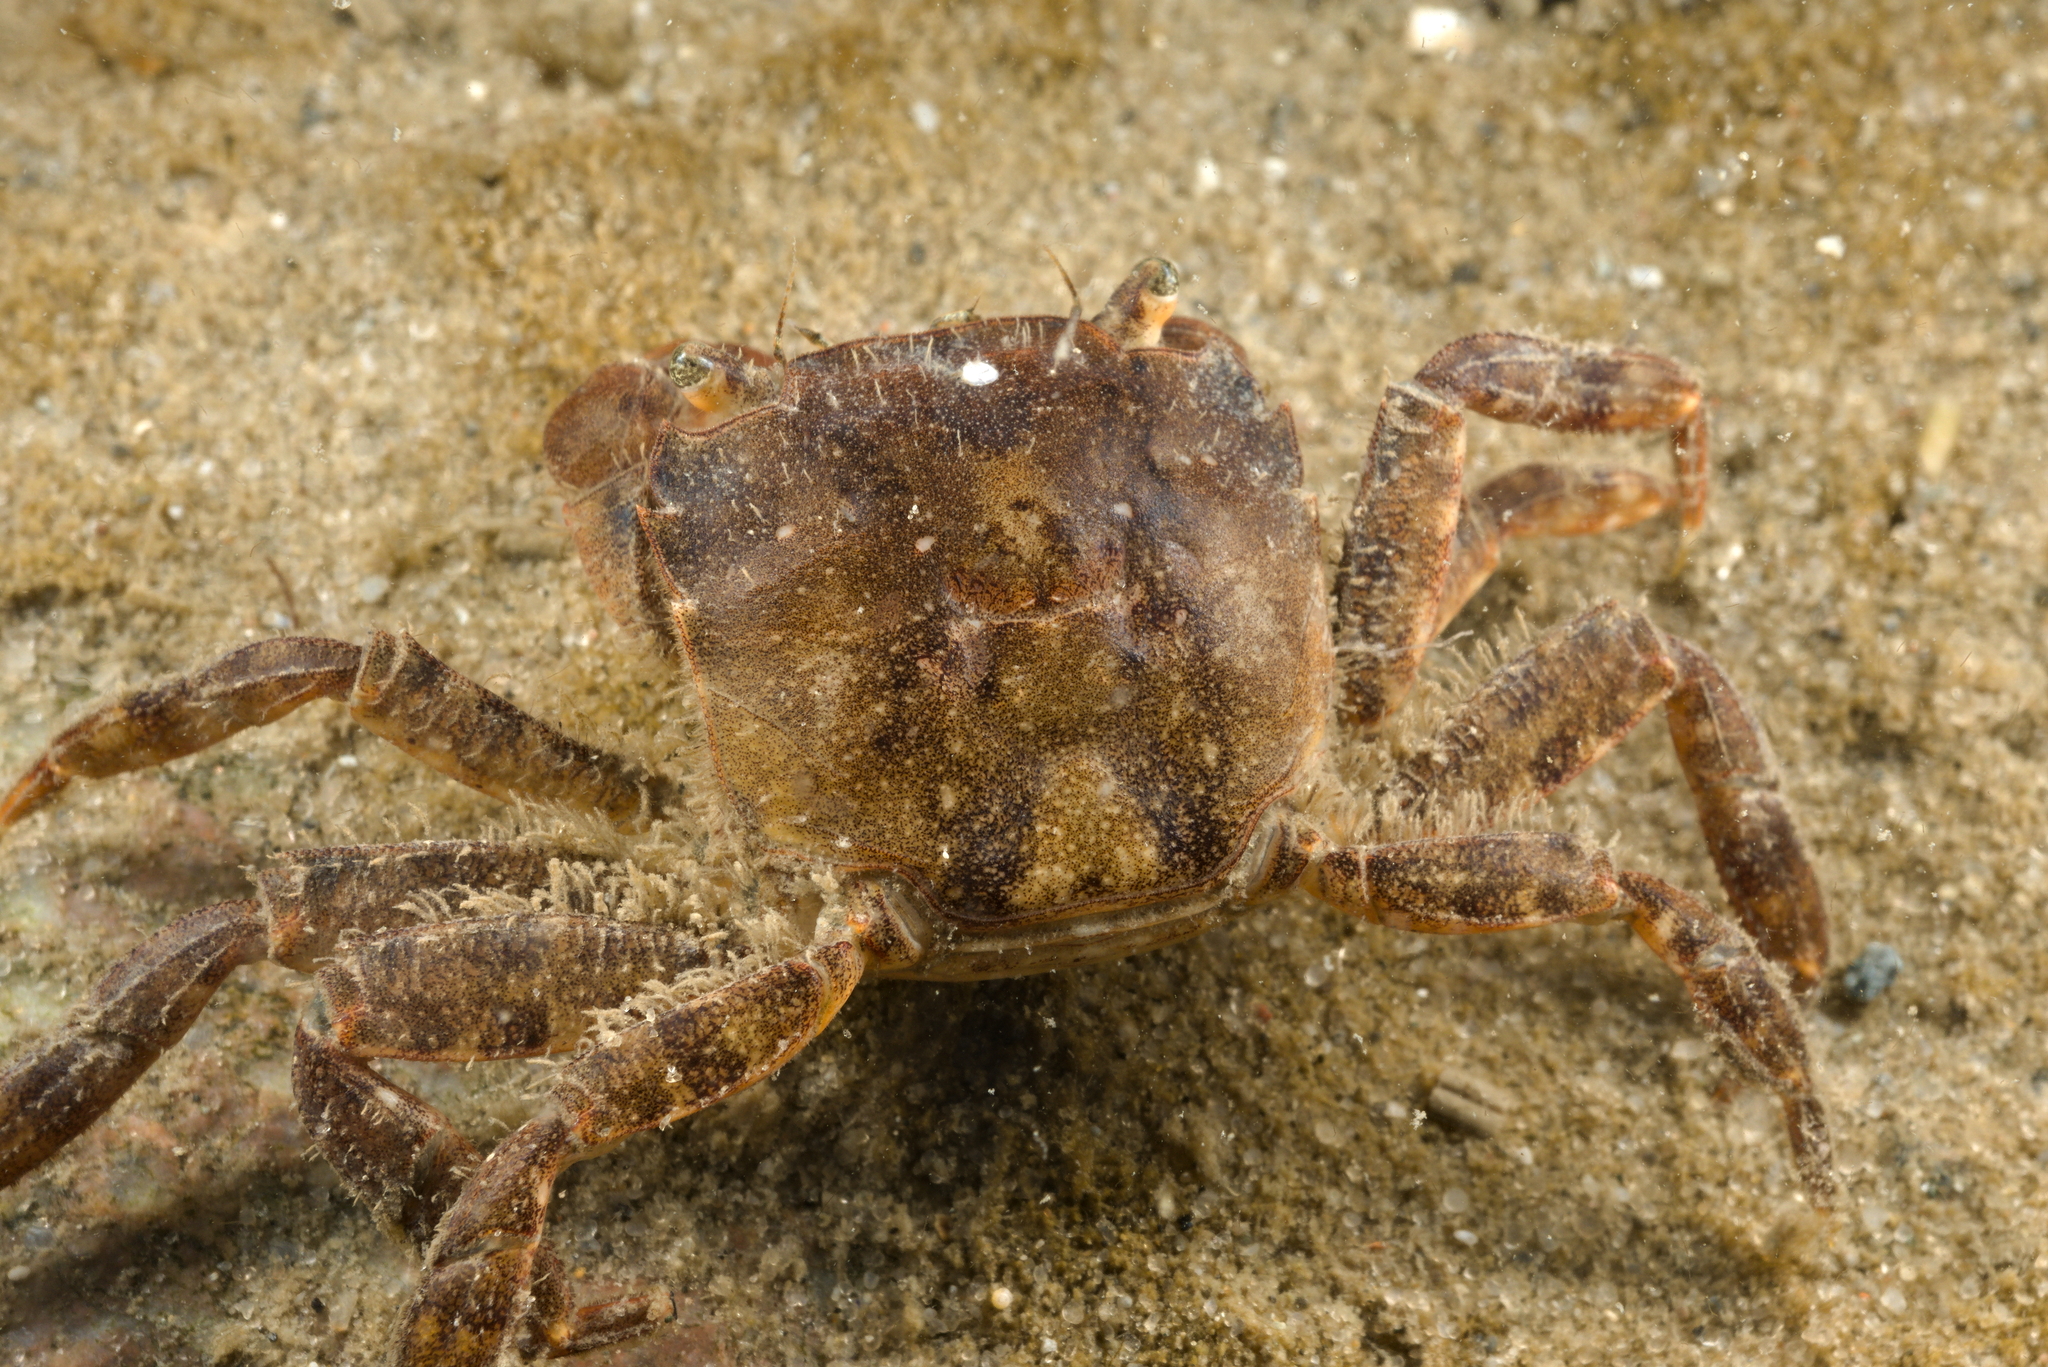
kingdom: Animalia
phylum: Arthropoda
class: Malacostraca
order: Decapoda
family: Varunidae
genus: Hemigrapsus
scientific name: Hemigrapsus takanoi
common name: Asian brush crab
